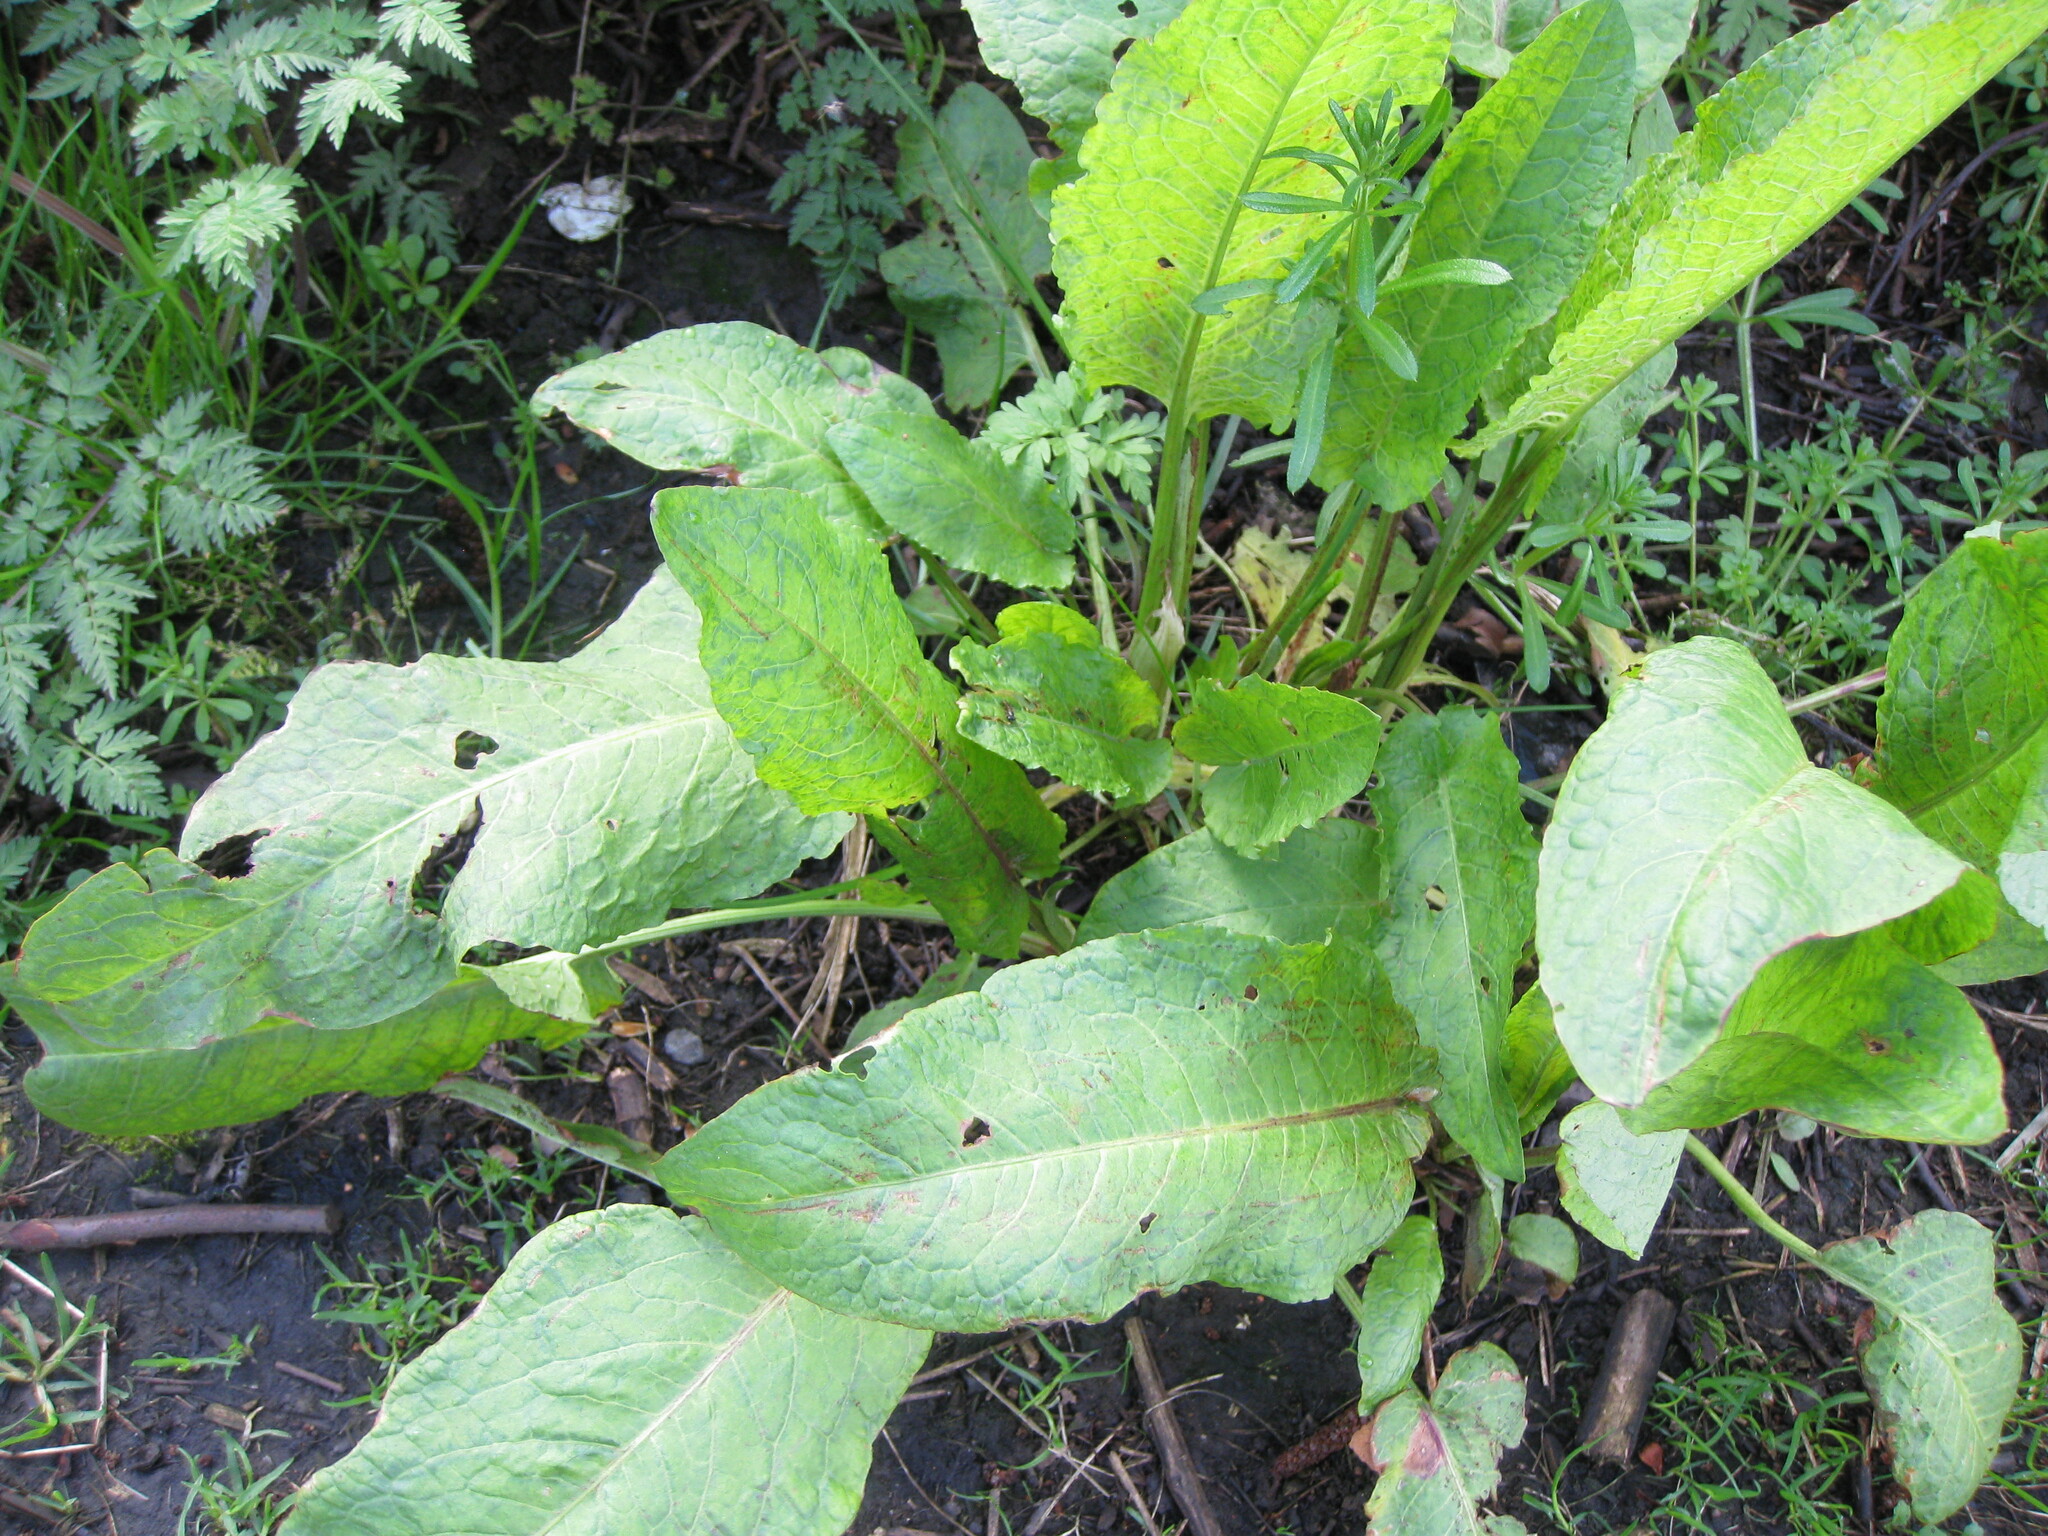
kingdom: Plantae
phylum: Tracheophyta
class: Magnoliopsida
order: Caryophyllales
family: Polygonaceae
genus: Rumex
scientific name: Rumex obtusifolius
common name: Bitter dock
